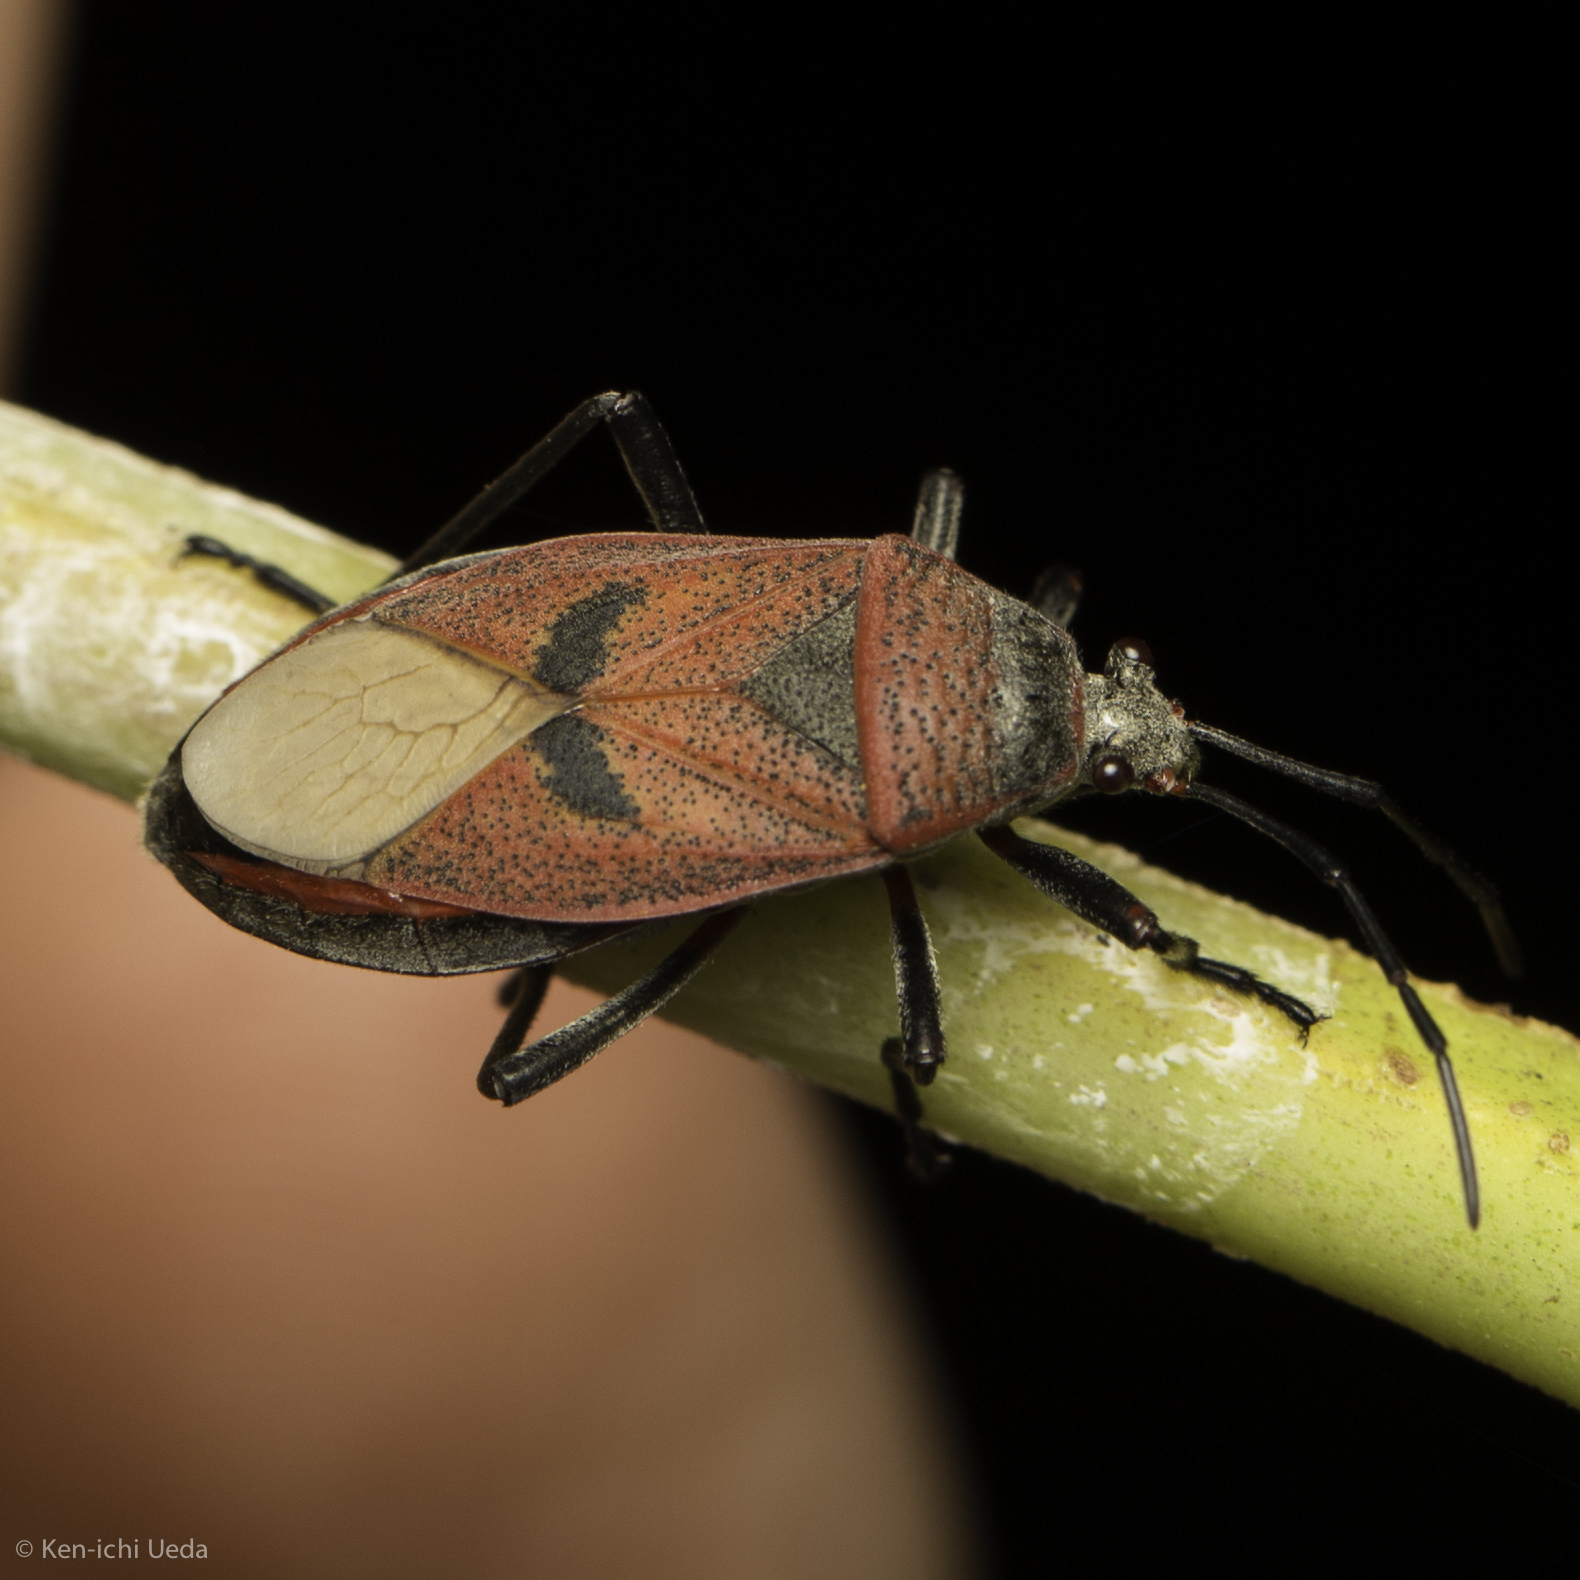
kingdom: Animalia
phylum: Arthropoda
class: Insecta
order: Hemiptera
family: Largidae
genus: Largus
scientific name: Largus maculatus
